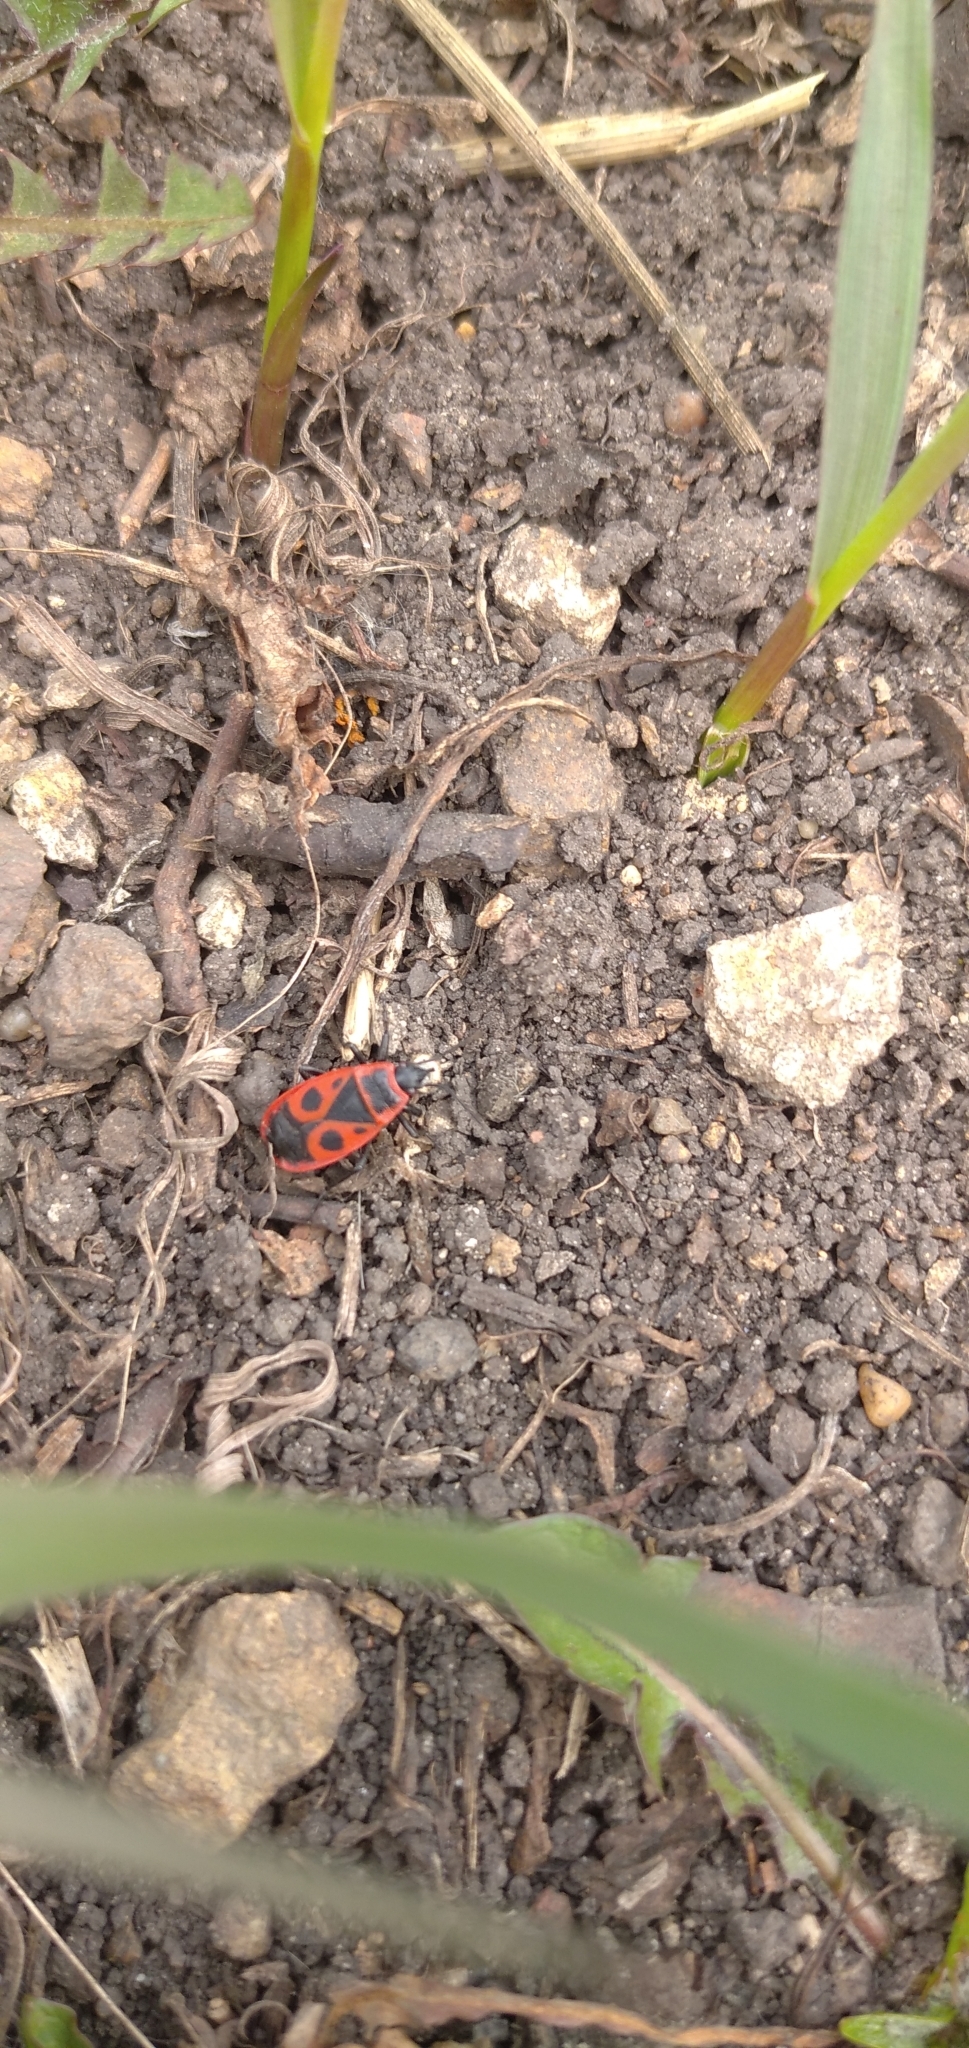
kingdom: Animalia
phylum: Arthropoda
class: Insecta
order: Hemiptera
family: Pyrrhocoridae
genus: Pyrrhocoris
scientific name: Pyrrhocoris apterus
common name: Firebug
